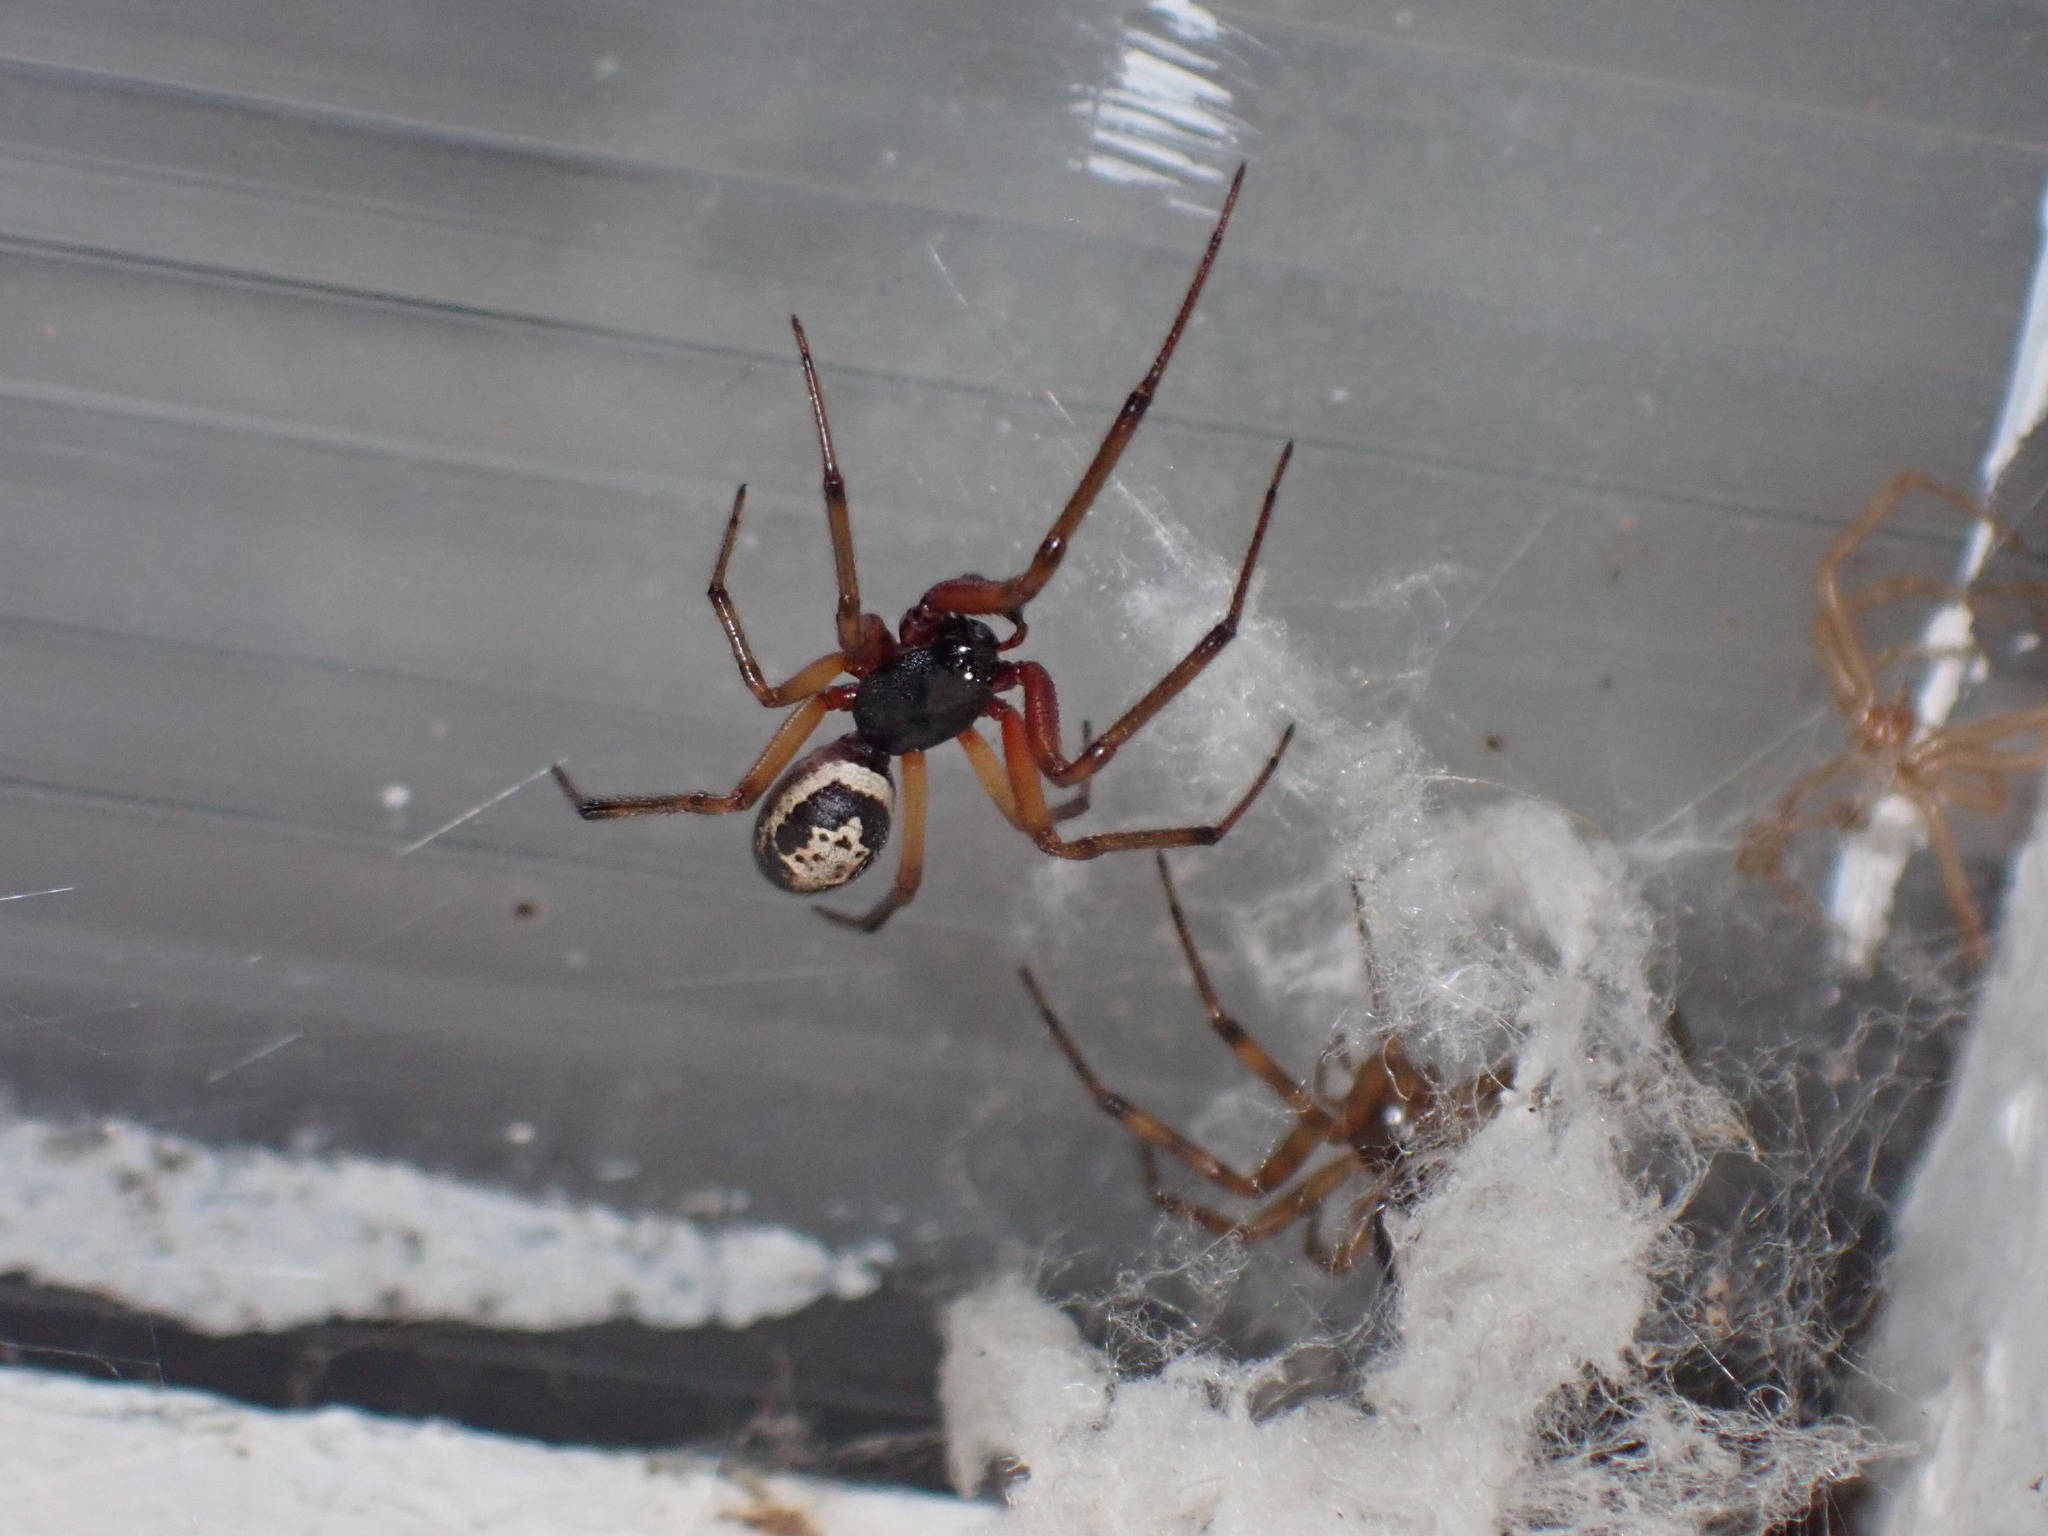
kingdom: Animalia
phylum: Arthropoda
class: Arachnida
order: Araneae
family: Theridiidae
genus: Steatoda
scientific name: Steatoda nobilis
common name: Cobweb weaver
